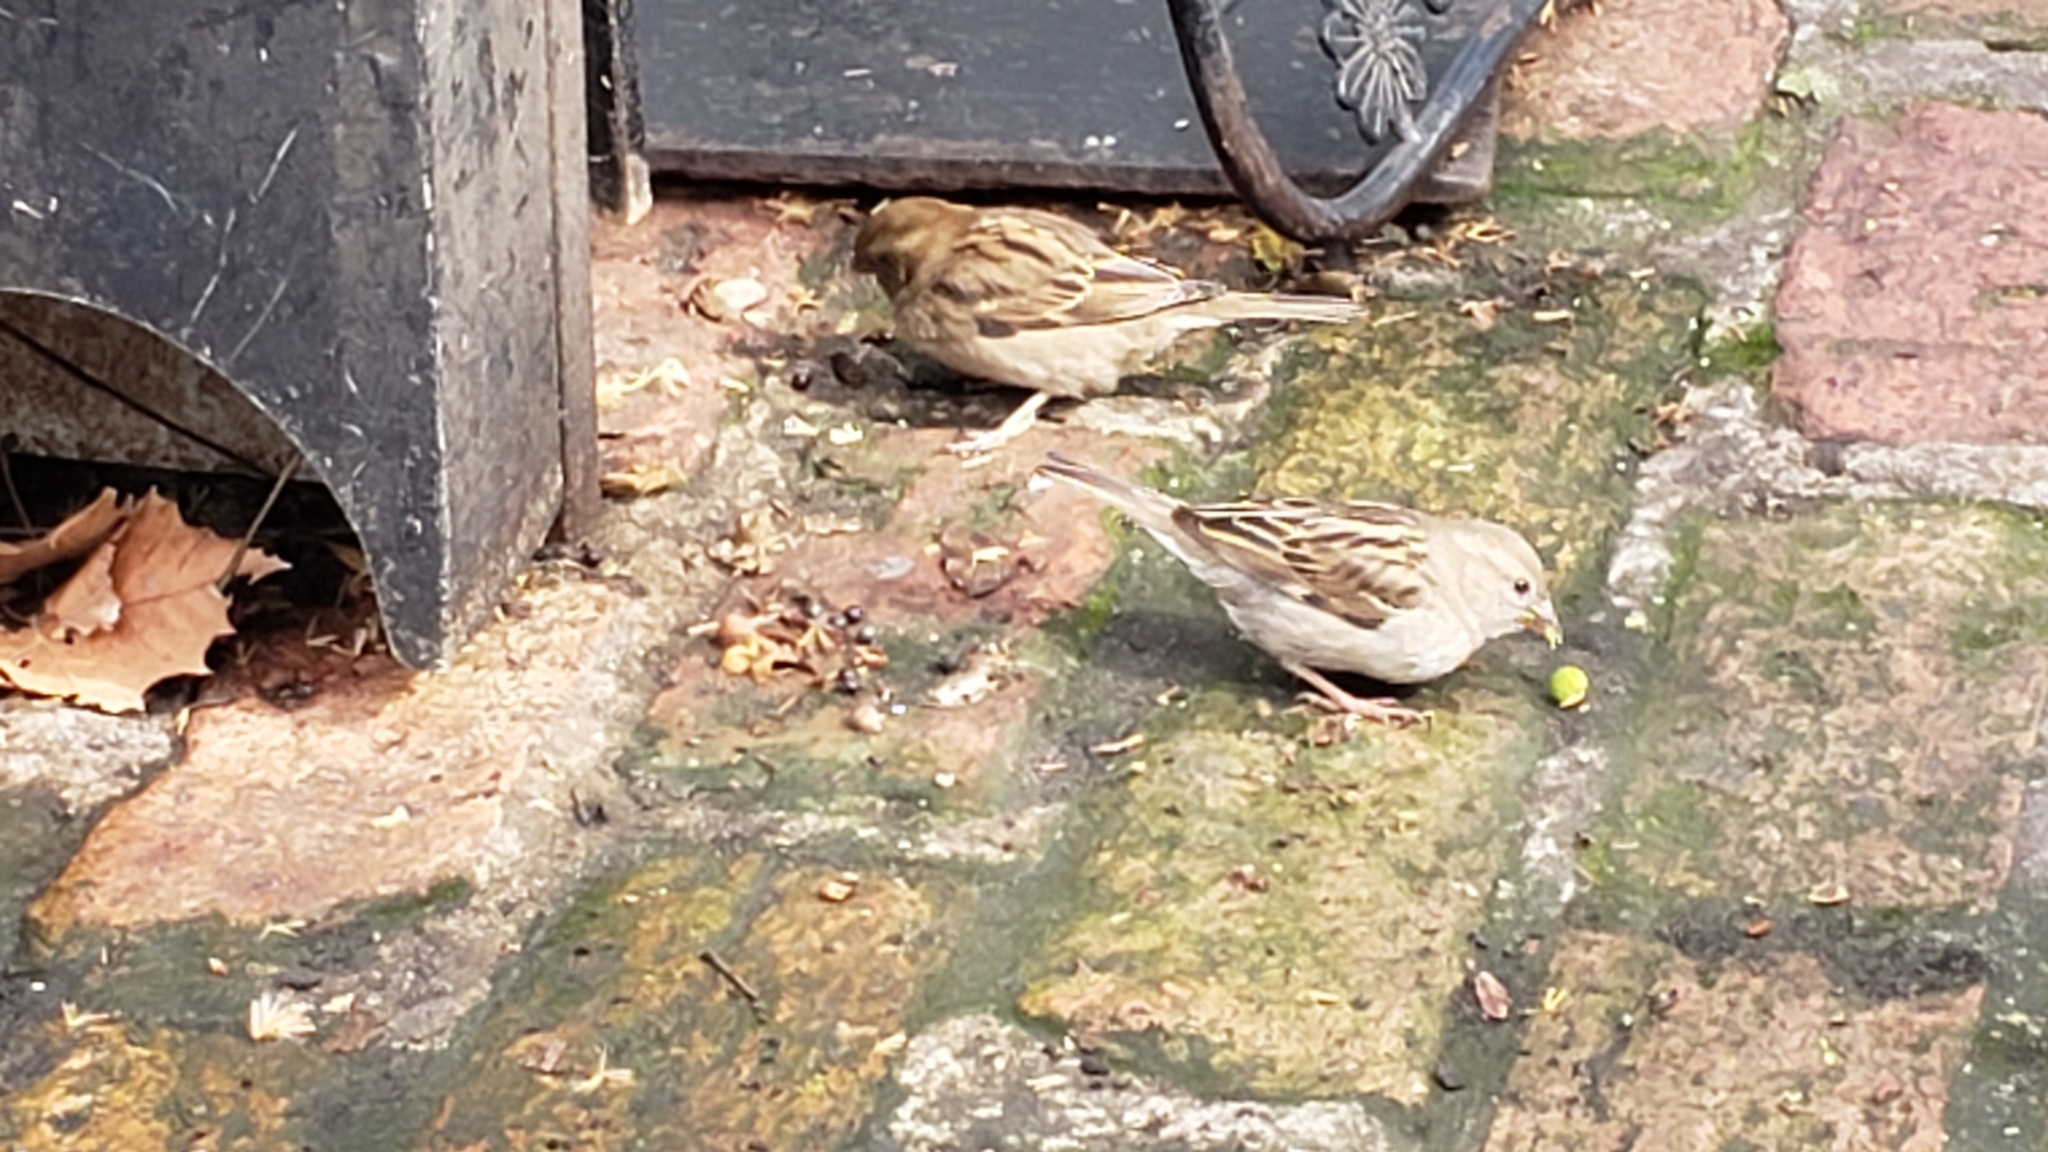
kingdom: Animalia
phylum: Chordata
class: Aves
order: Passeriformes
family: Passeridae
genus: Passer
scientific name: Passer domesticus
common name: House sparrow
